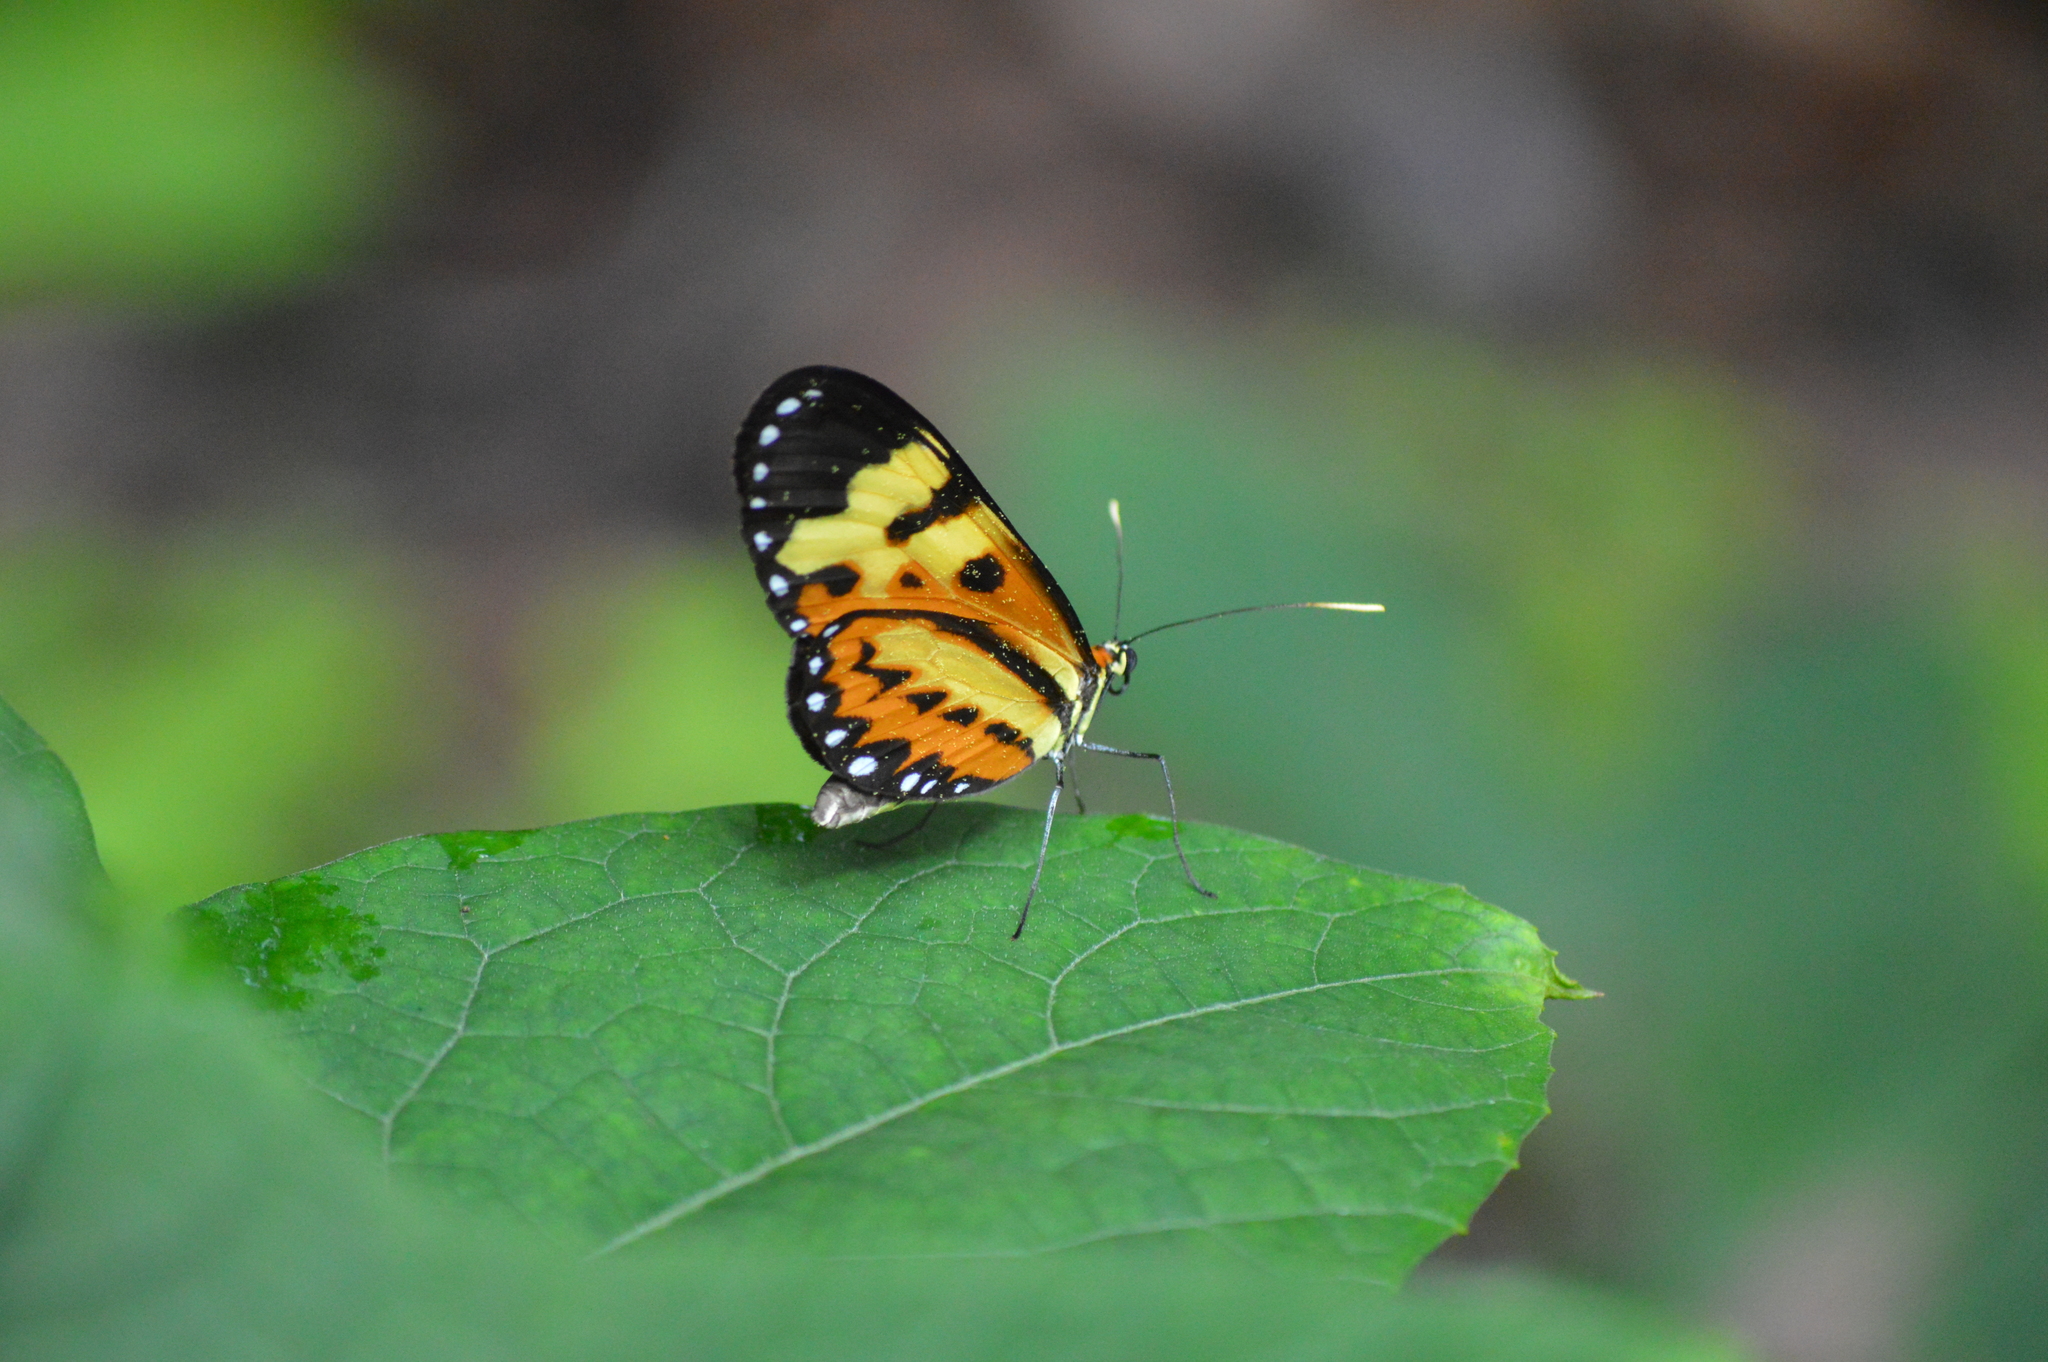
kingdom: Animalia
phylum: Arthropoda
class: Insecta
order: Lepidoptera
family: Nymphalidae
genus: Mechanitis
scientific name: Mechanitis polymnia
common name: Disturbed tigerwing
